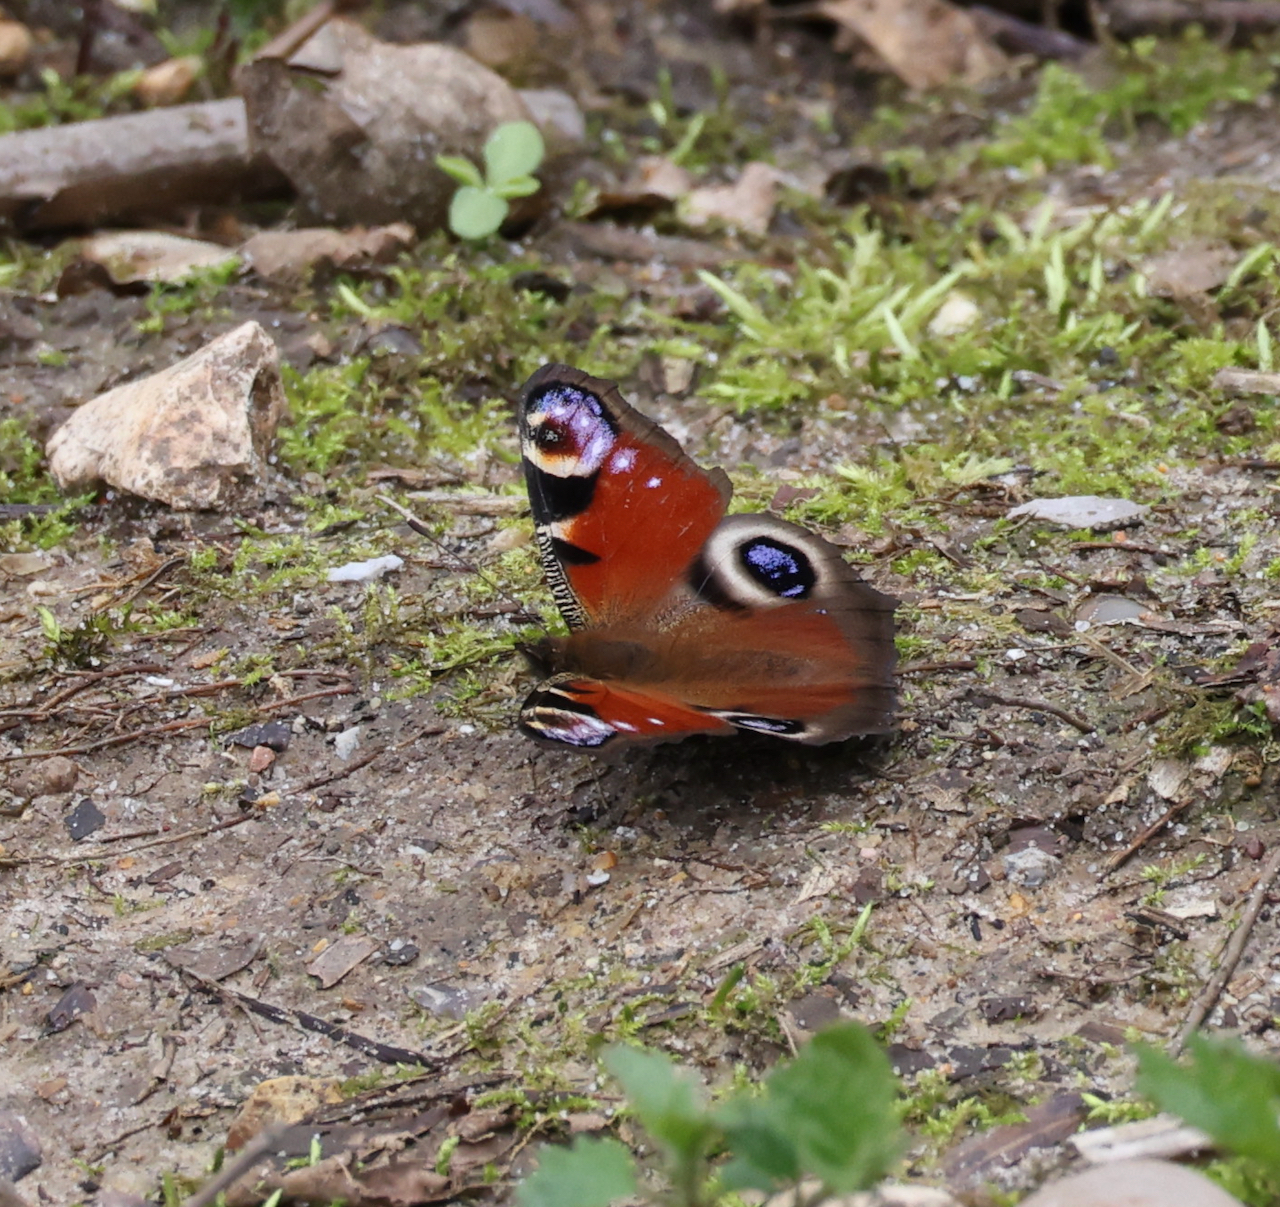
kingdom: Animalia
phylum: Arthropoda
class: Insecta
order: Lepidoptera
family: Nymphalidae
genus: Aglais
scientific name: Aglais io
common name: Peacock
